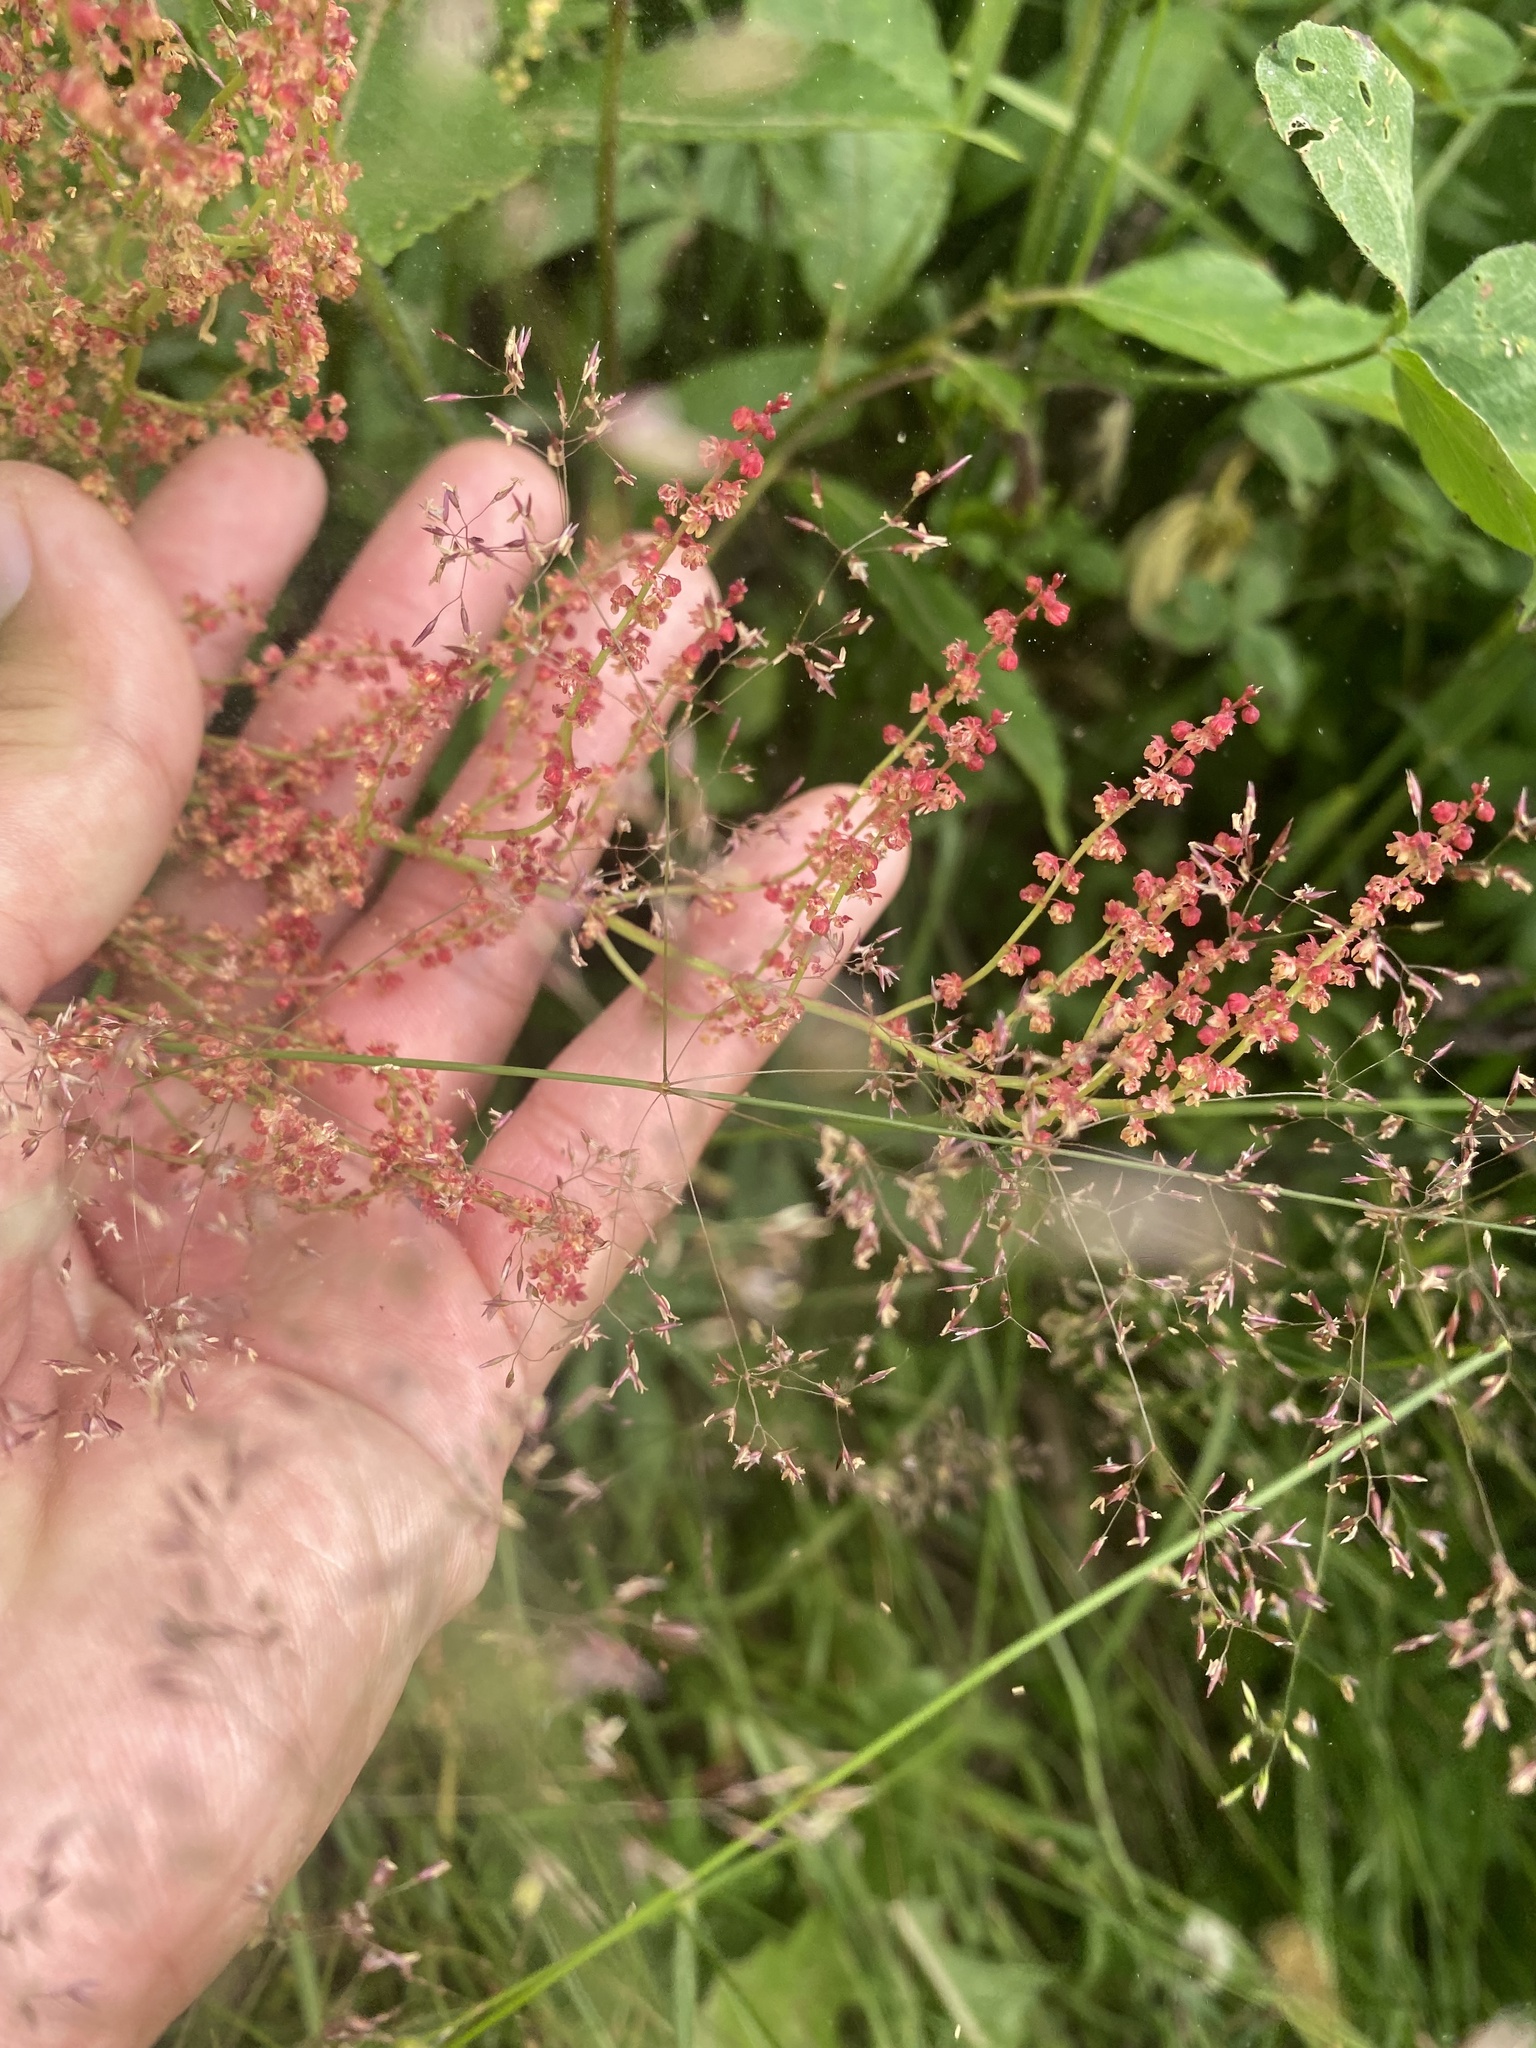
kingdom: Plantae
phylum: Tracheophyta
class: Magnoliopsida
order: Caryophyllales
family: Polygonaceae
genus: Rumex
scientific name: Rumex acetosella
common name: Common sheep sorrel
